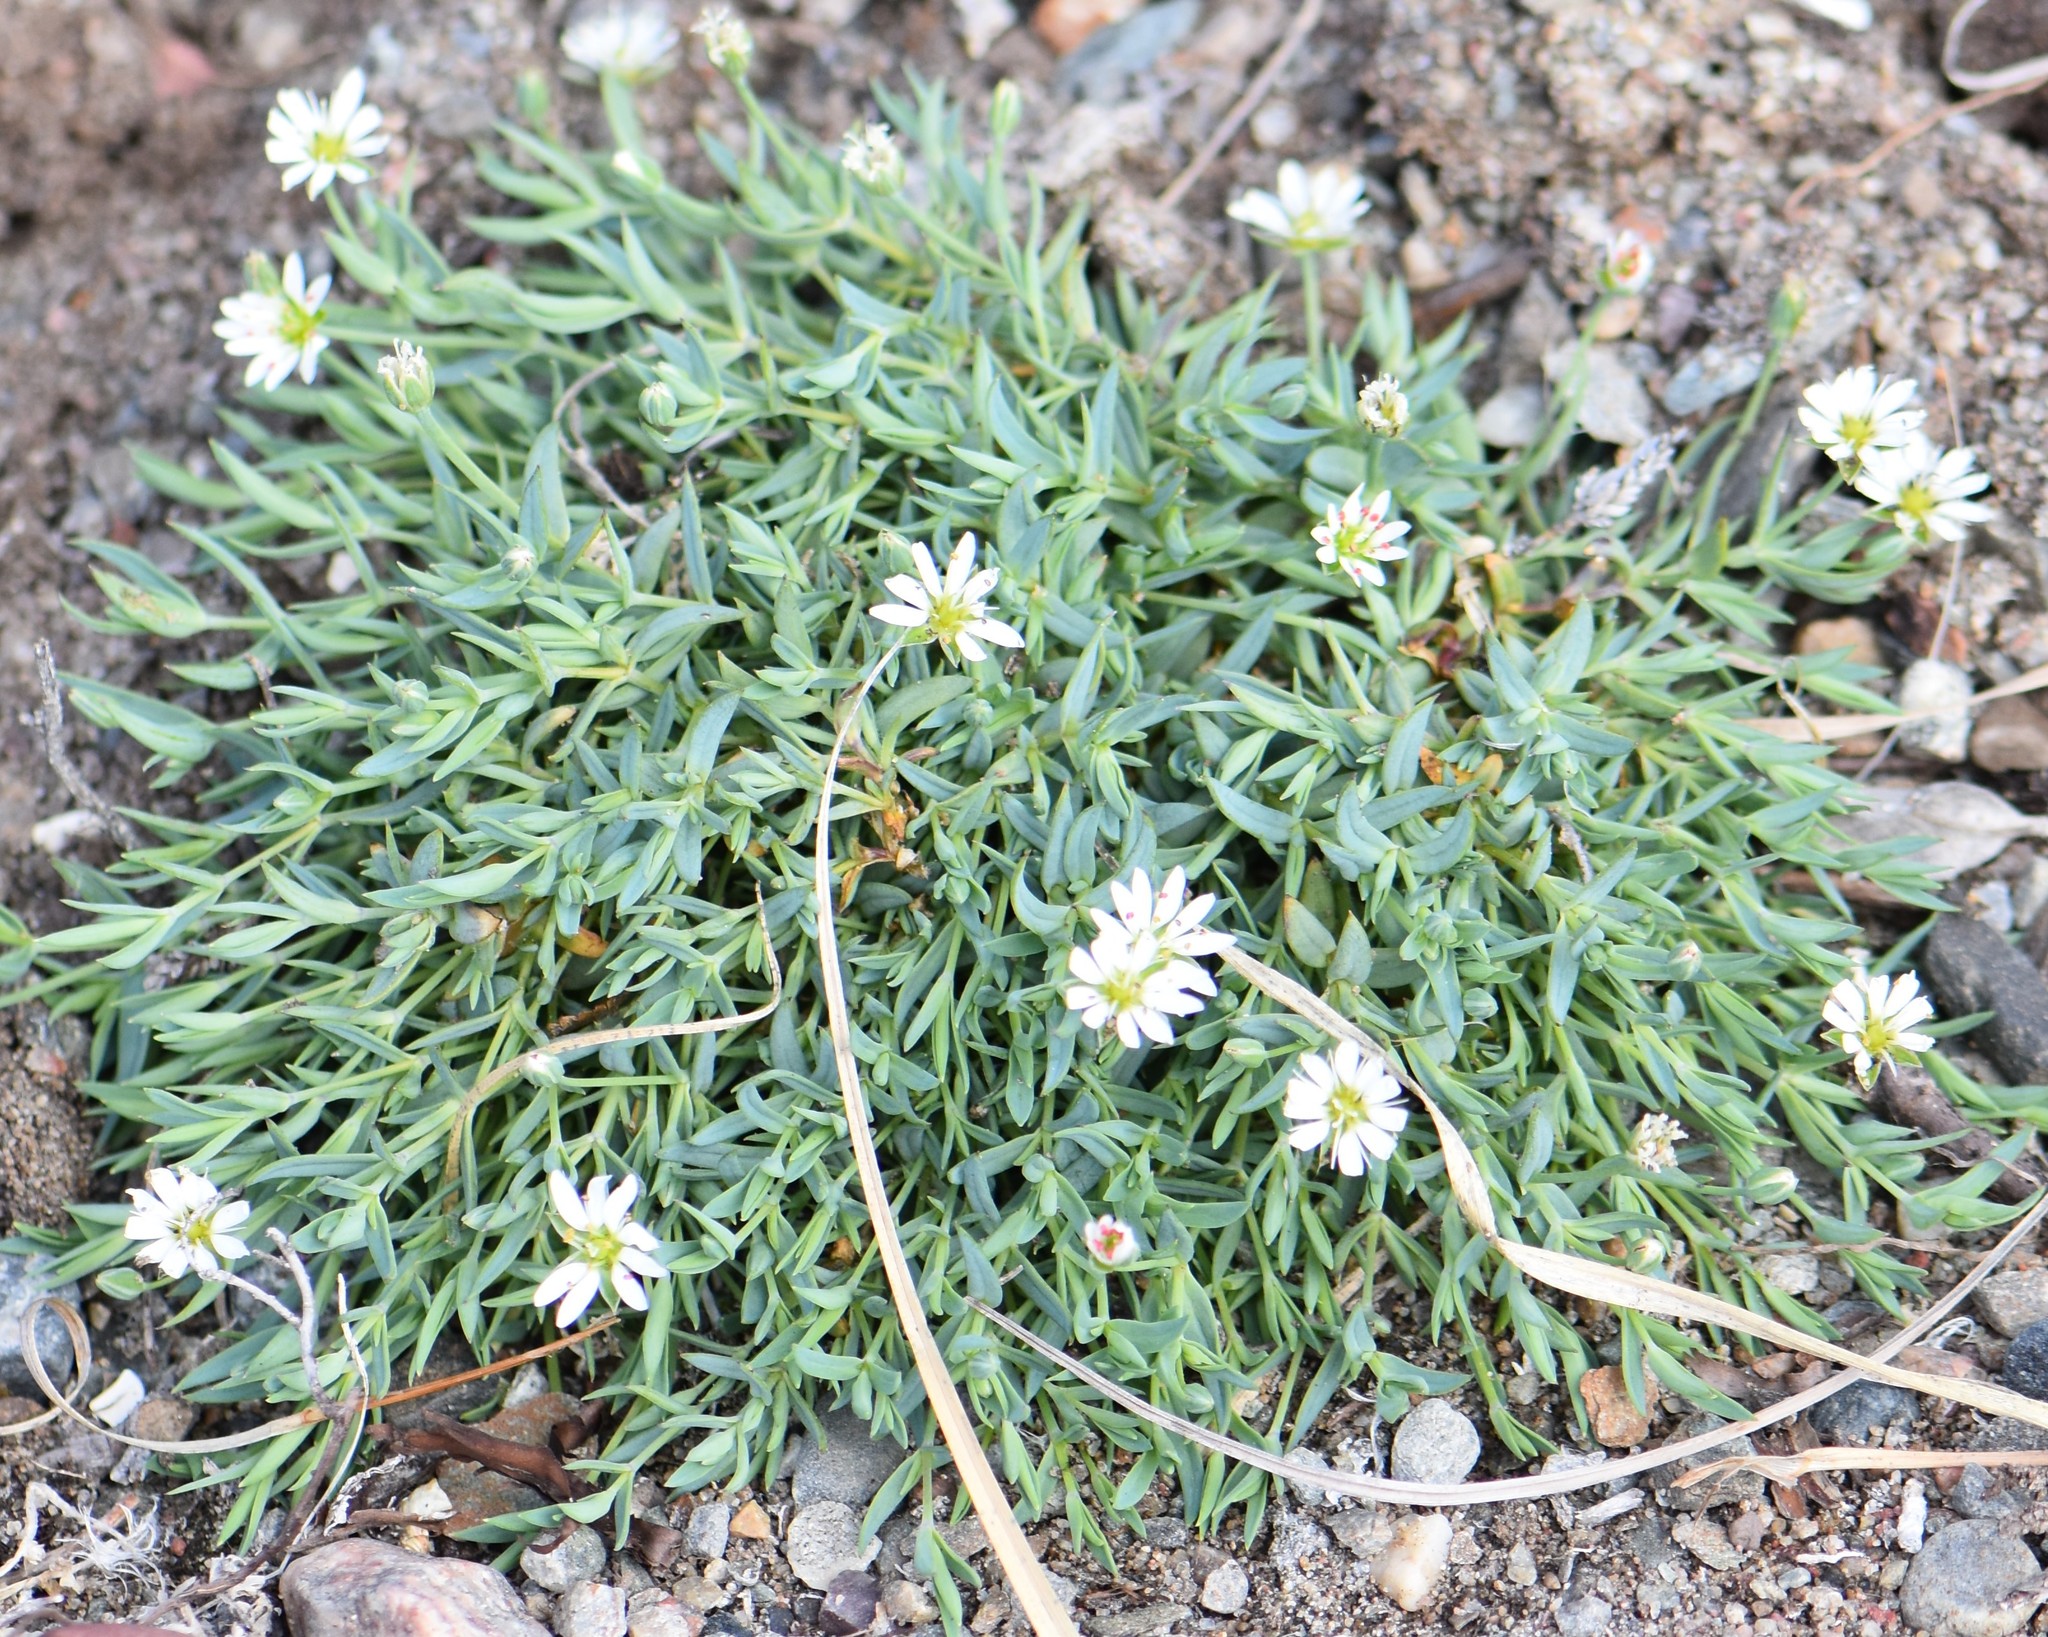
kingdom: Plantae
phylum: Tracheophyta
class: Magnoliopsida
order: Caryophyllales
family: Caryophyllaceae
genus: Stellaria
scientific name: Stellaria longipes
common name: Goldie's starwort
